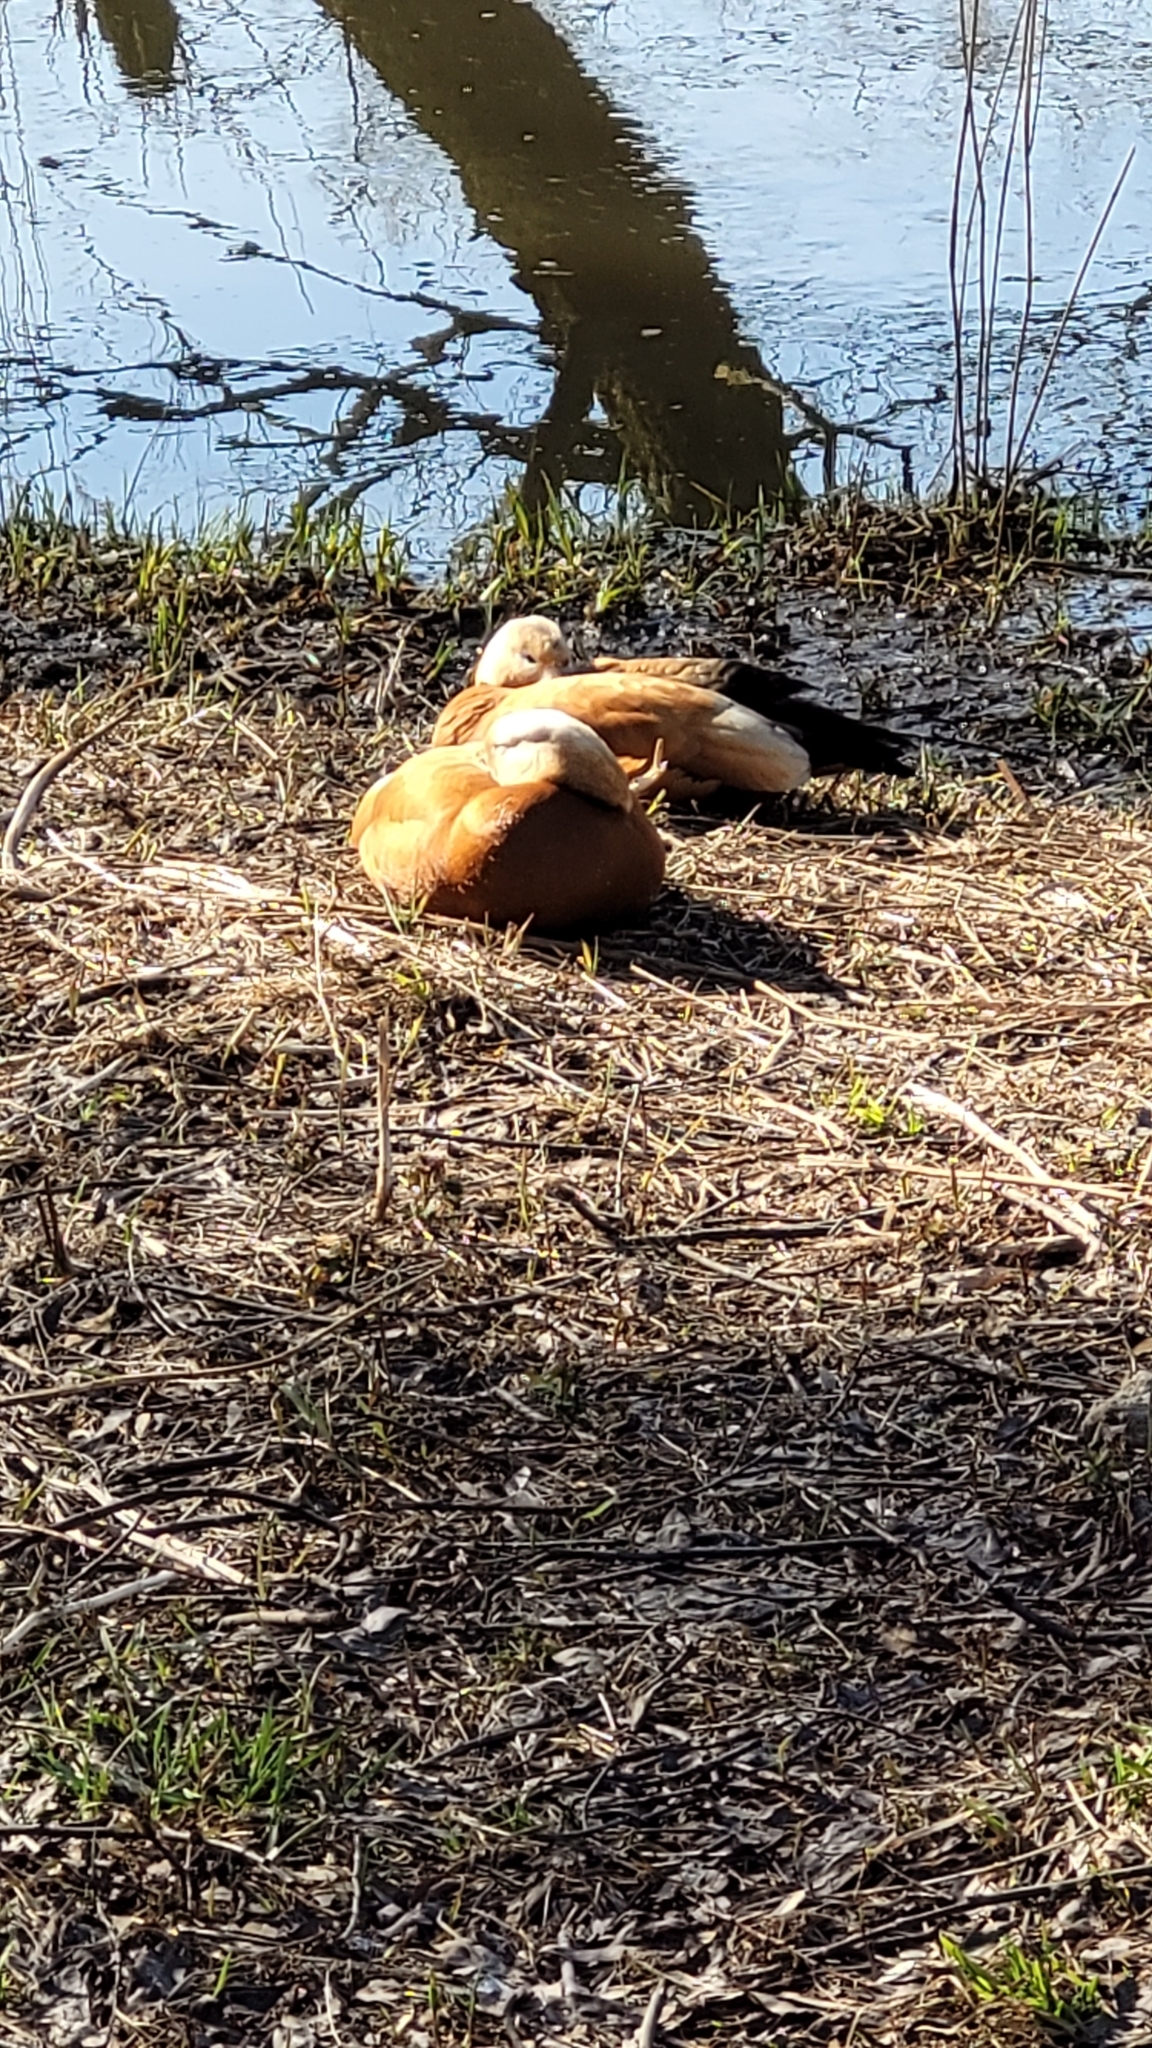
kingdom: Animalia
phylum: Chordata
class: Aves
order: Anseriformes
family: Anatidae
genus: Tadorna
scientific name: Tadorna ferruginea
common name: Ruddy shelduck
